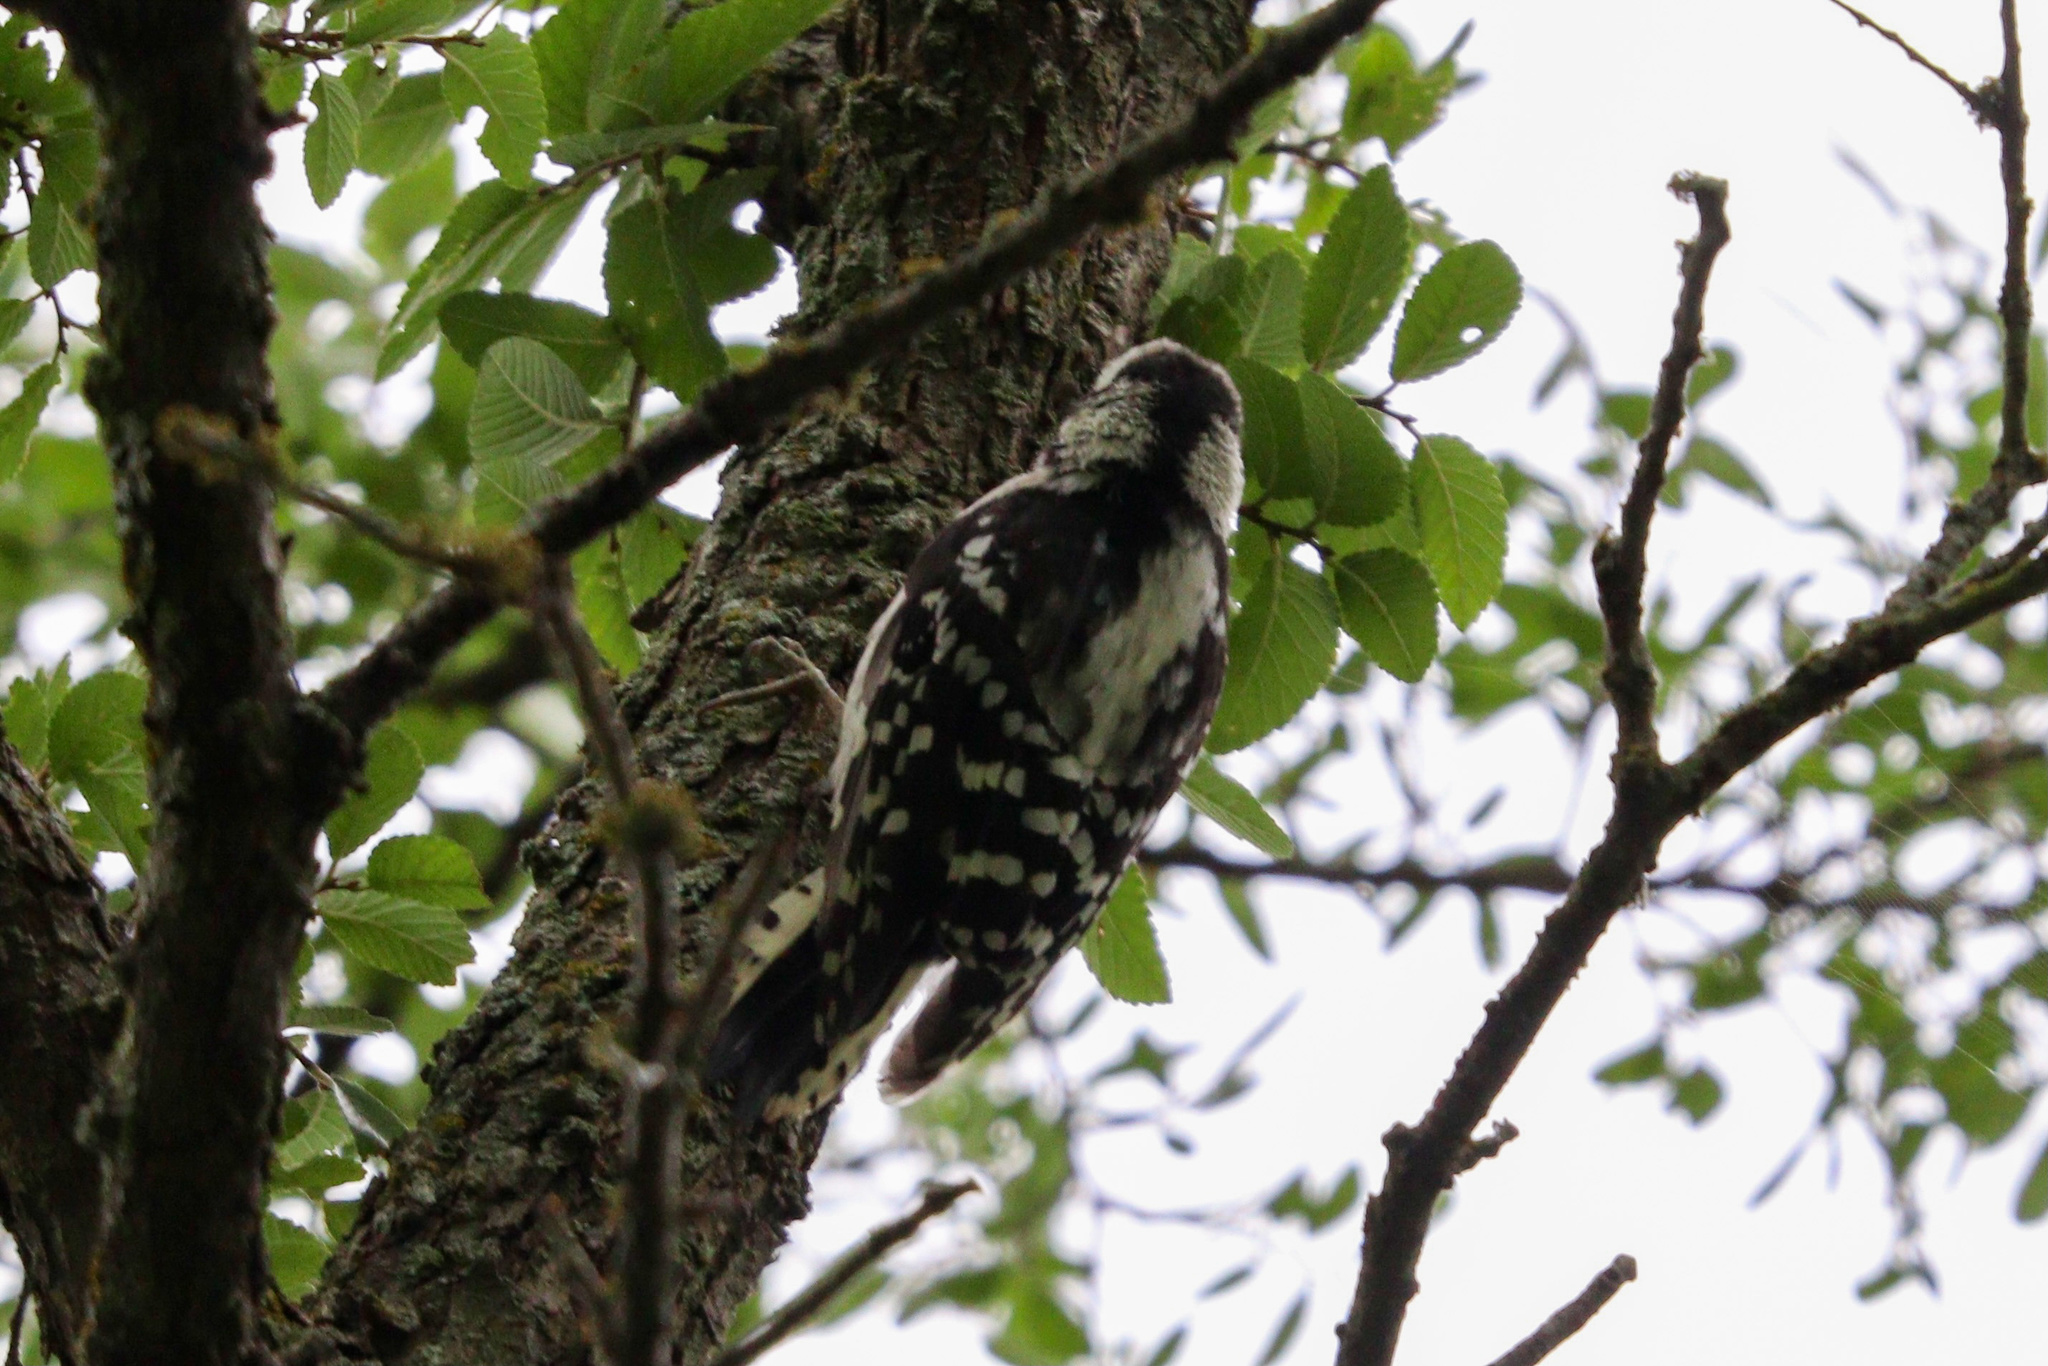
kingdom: Animalia
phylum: Chordata
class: Aves
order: Piciformes
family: Picidae
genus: Dryobates
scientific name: Dryobates pubescens
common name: Downy woodpecker
